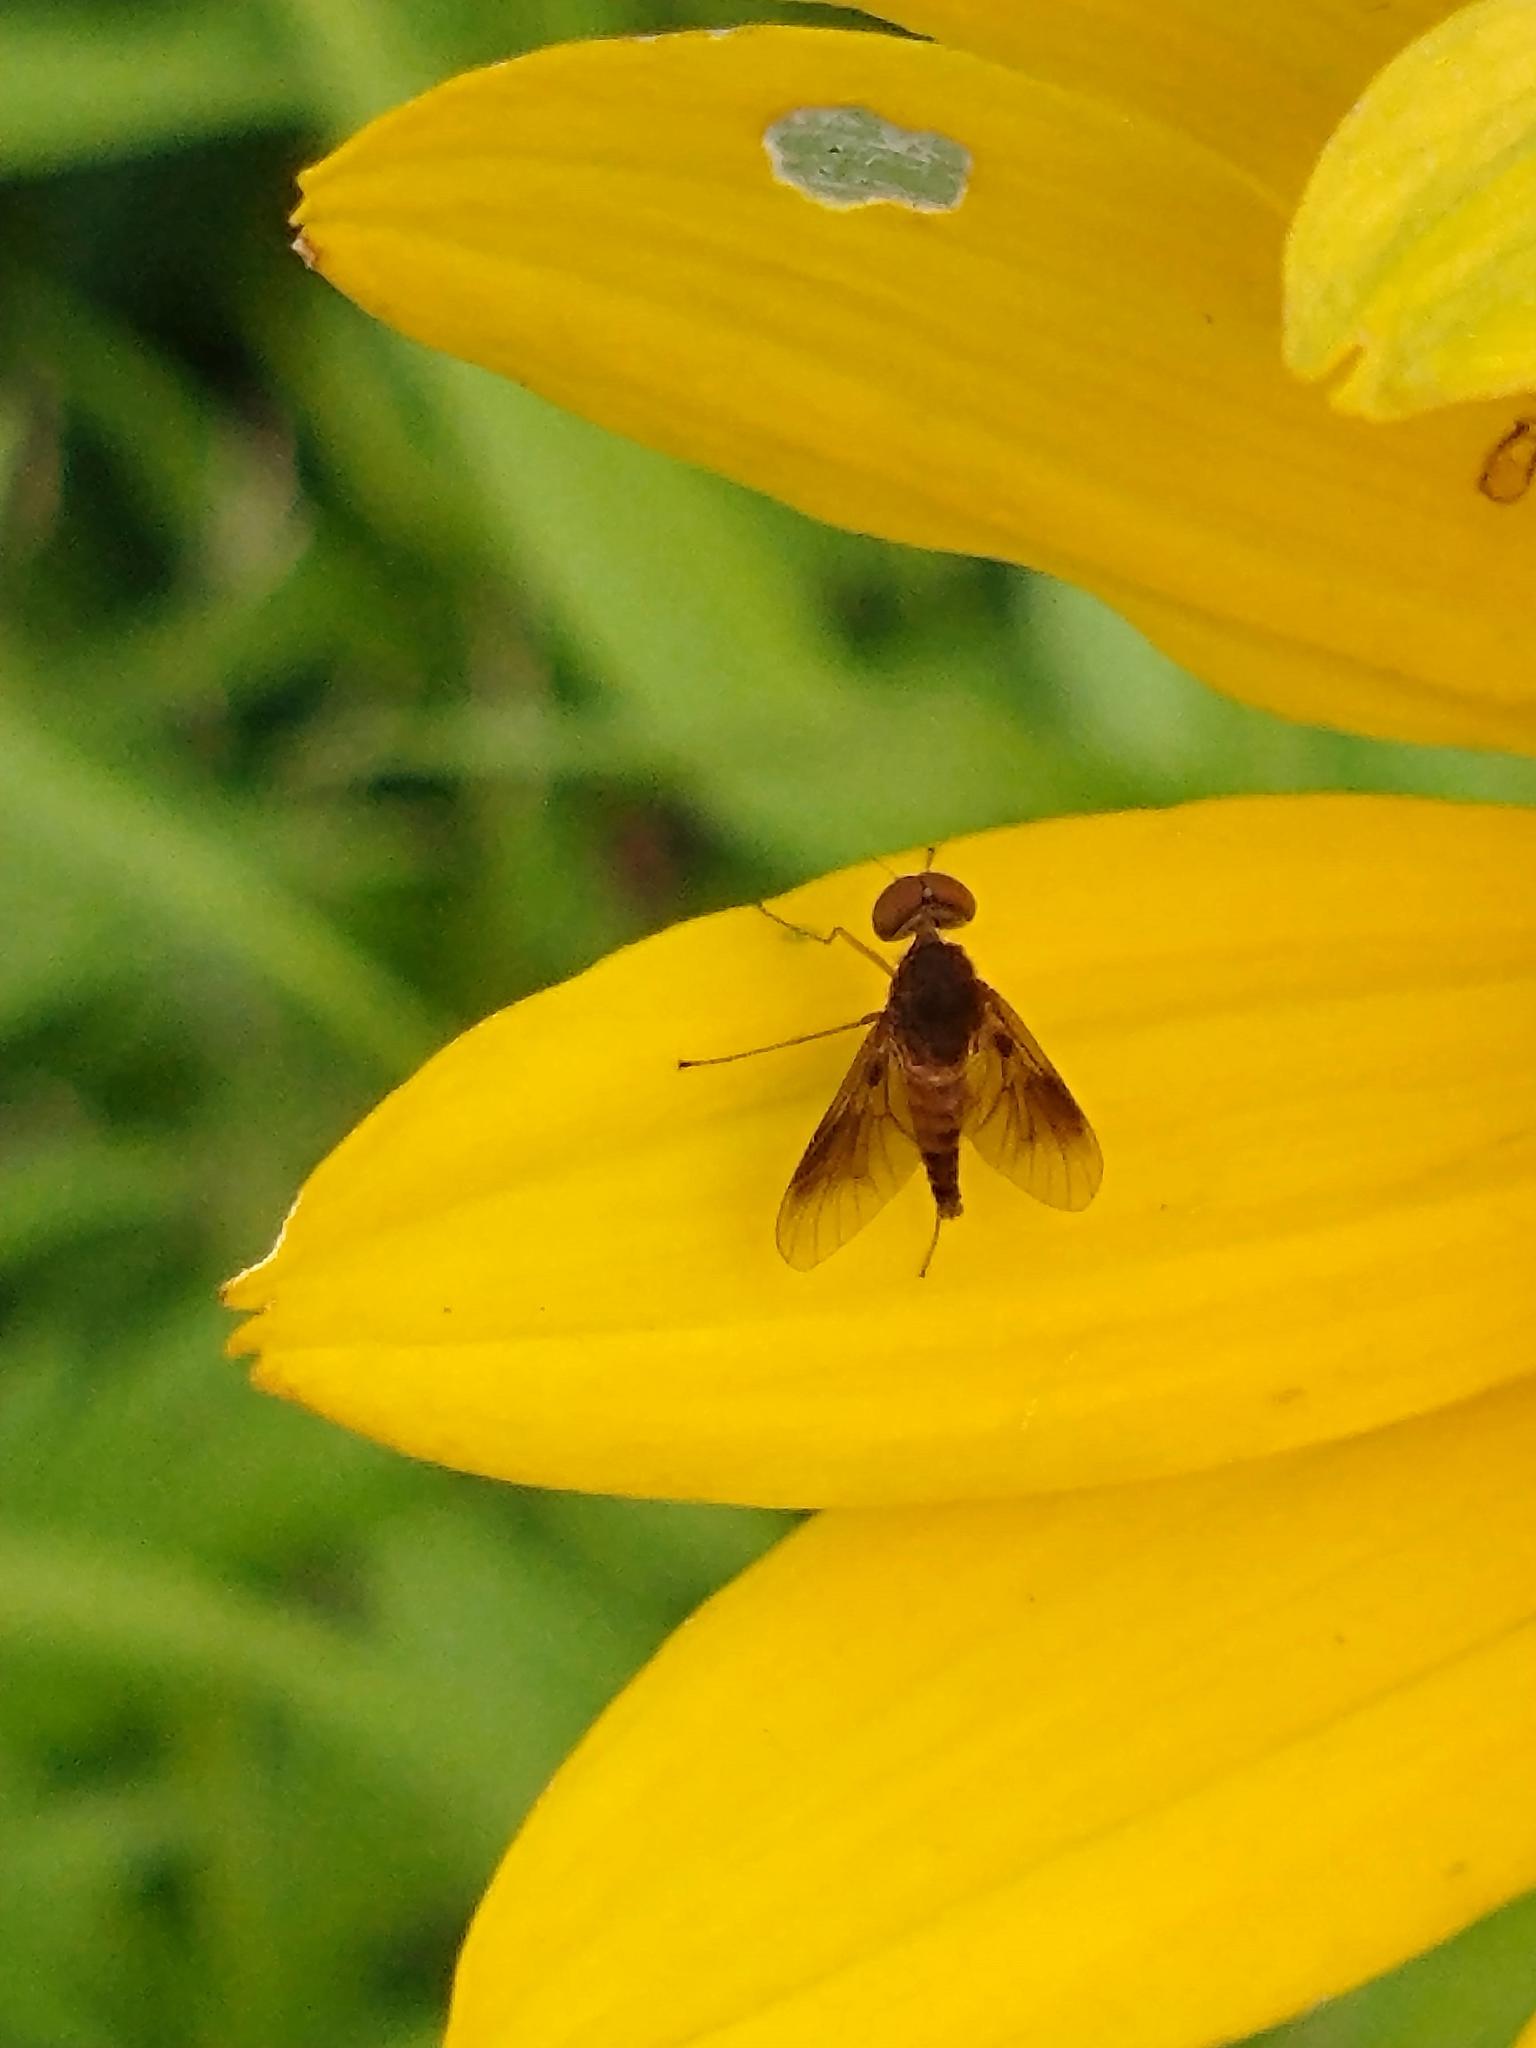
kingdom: Animalia
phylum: Arthropoda
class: Insecta
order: Diptera
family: Rhagionidae
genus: Chrysopilus
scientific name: Chrysopilus quadratus
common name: Quadrate snipe fly
